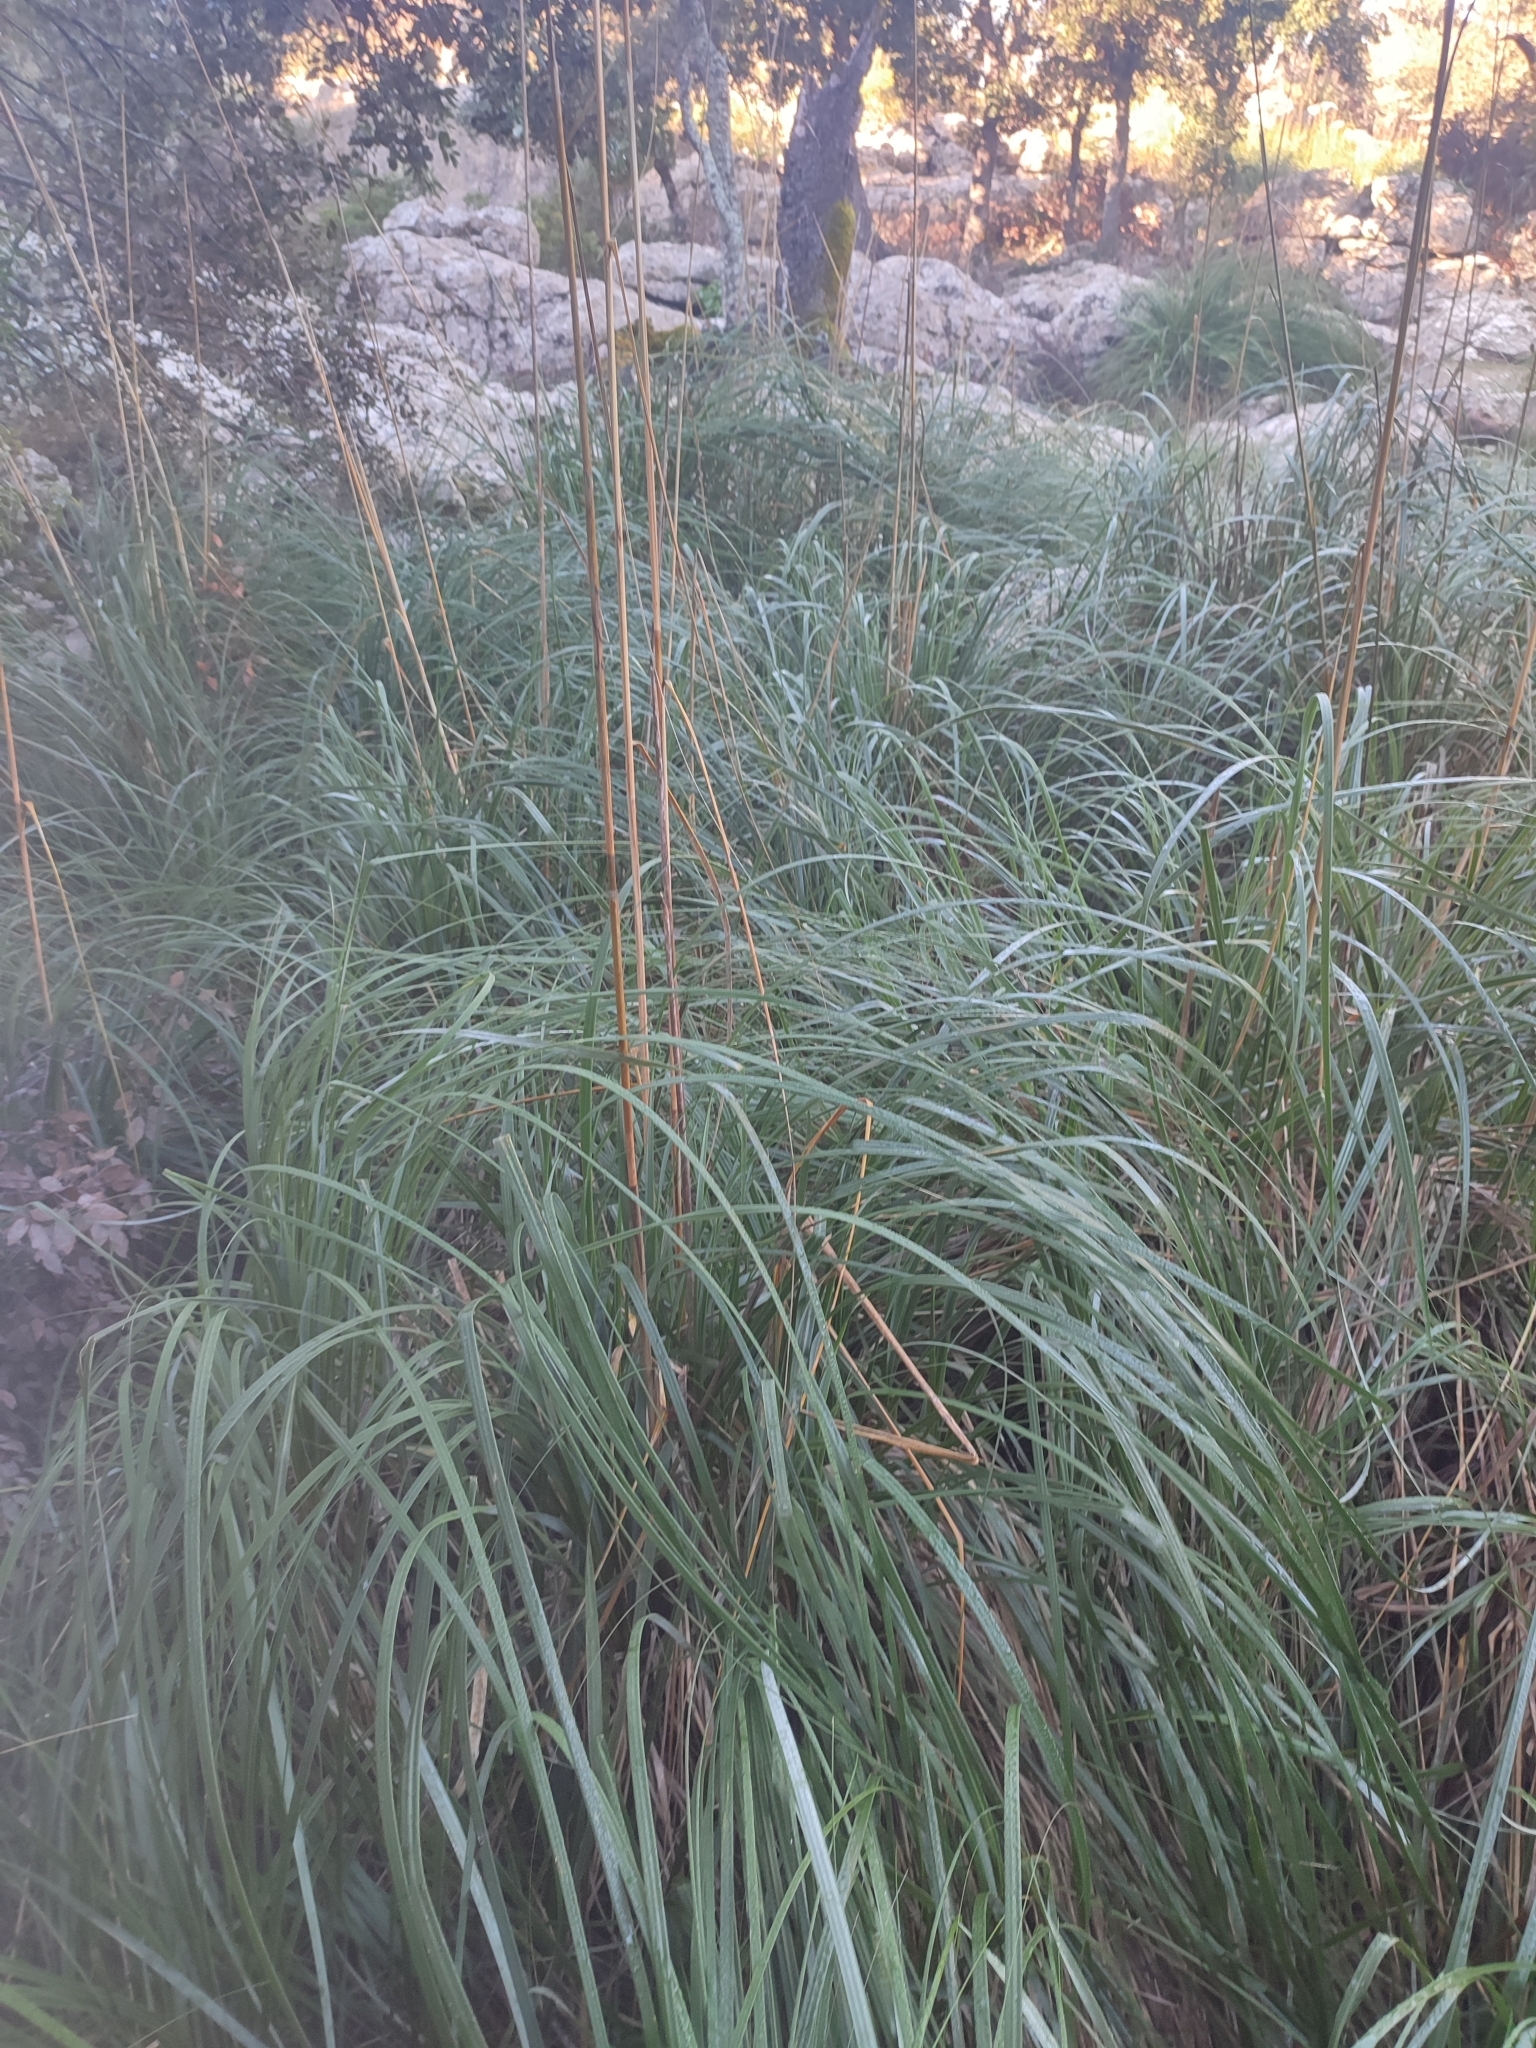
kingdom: Plantae
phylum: Tracheophyta
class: Liliopsida
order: Poales
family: Poaceae
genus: Ampelodesmos
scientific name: Ampelodesmos mauritanicus
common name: Mauritanian grass
